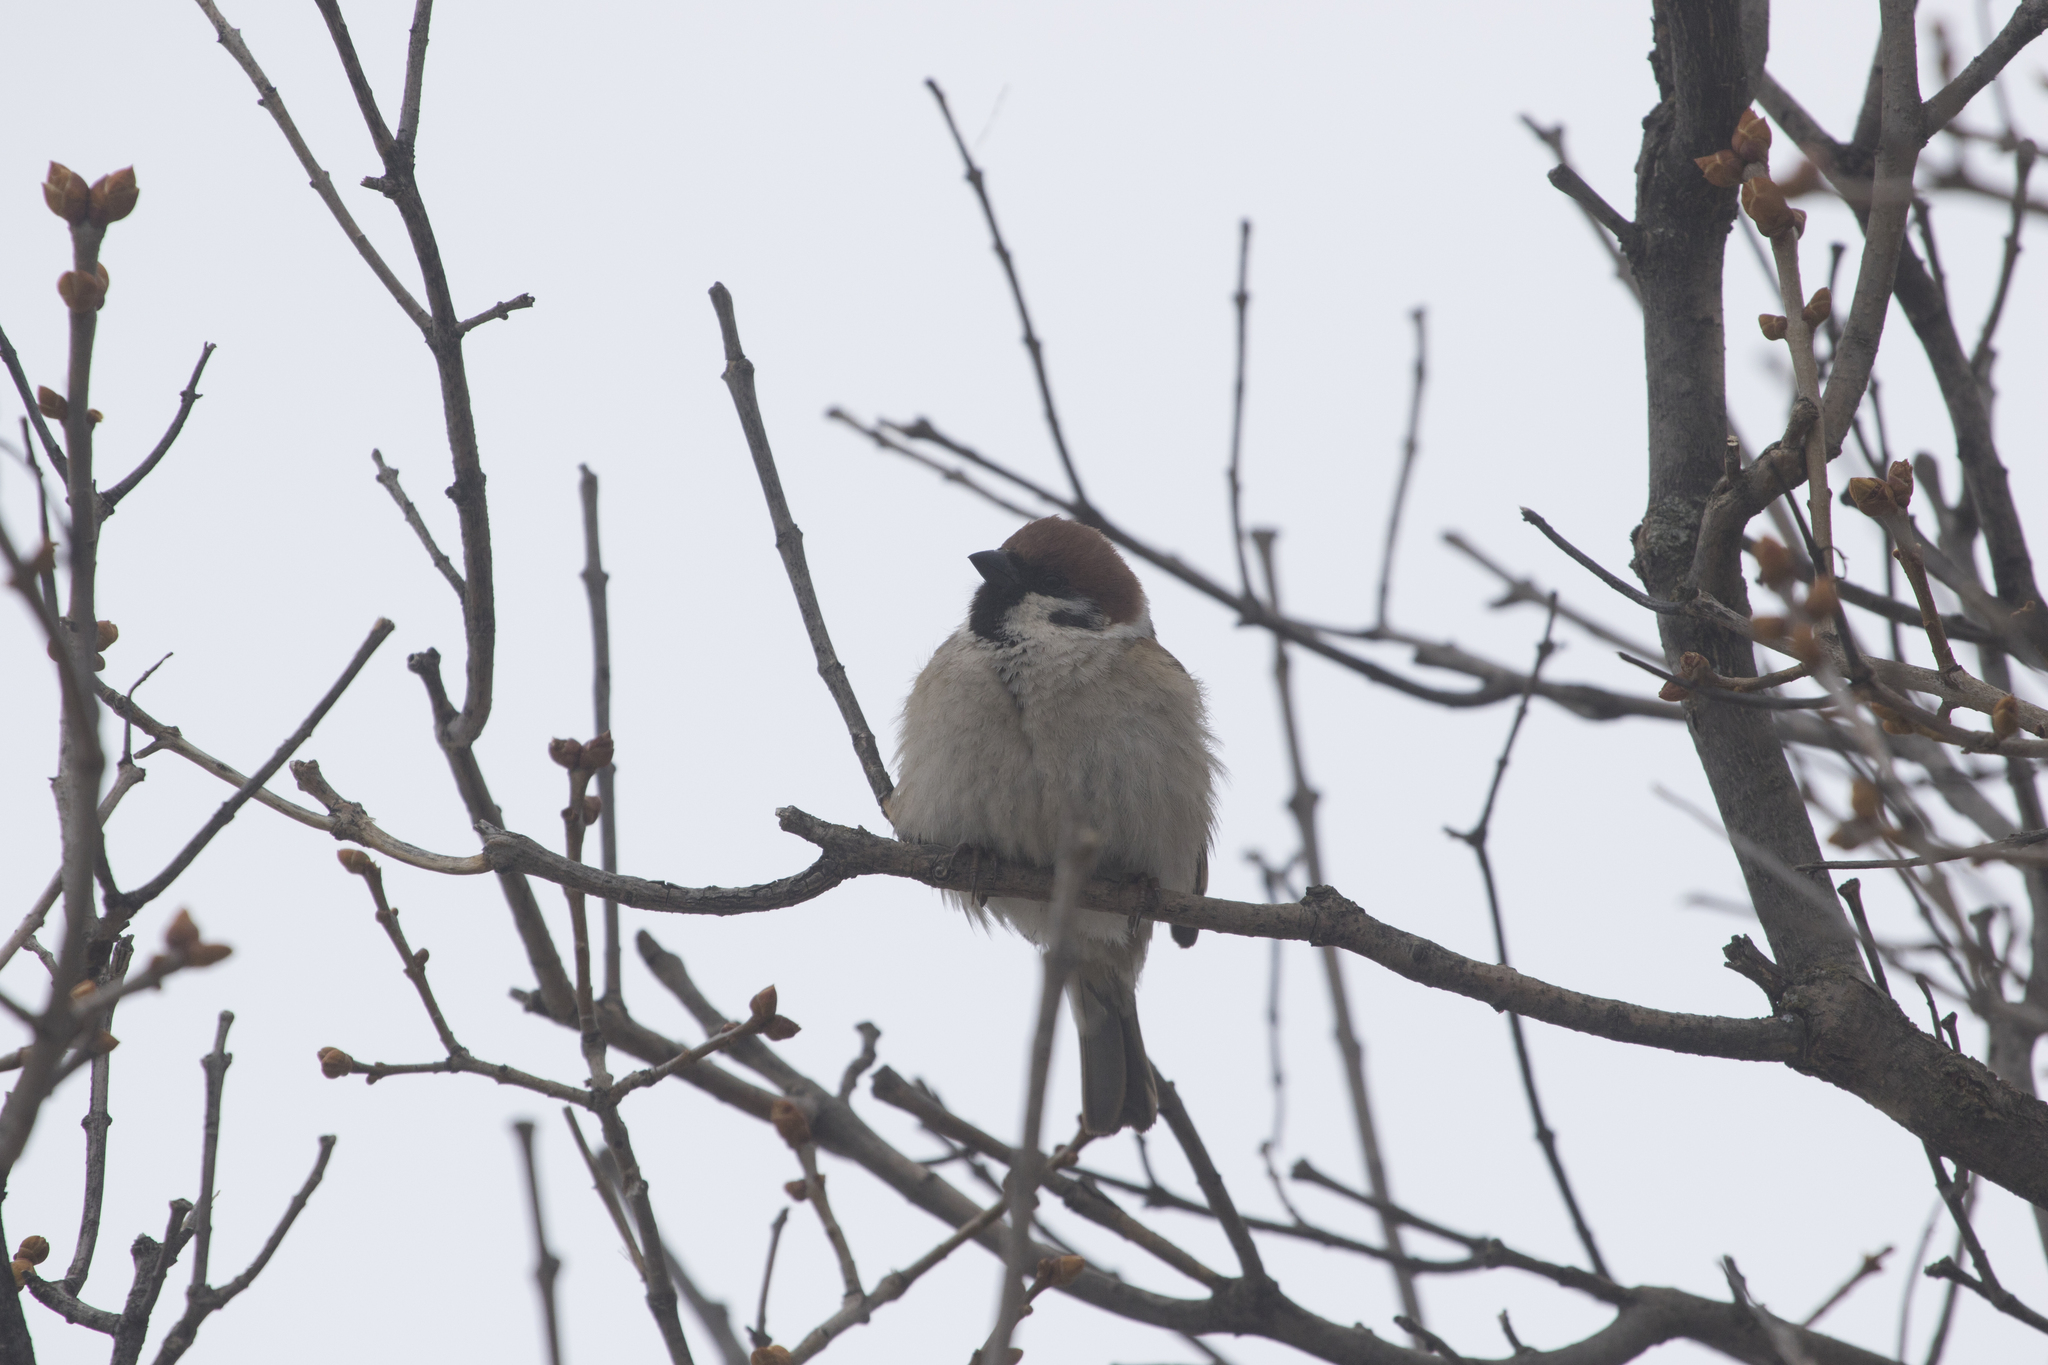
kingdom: Animalia
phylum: Chordata
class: Aves
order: Passeriformes
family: Passeridae
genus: Passer
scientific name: Passer montanus
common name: Eurasian tree sparrow
